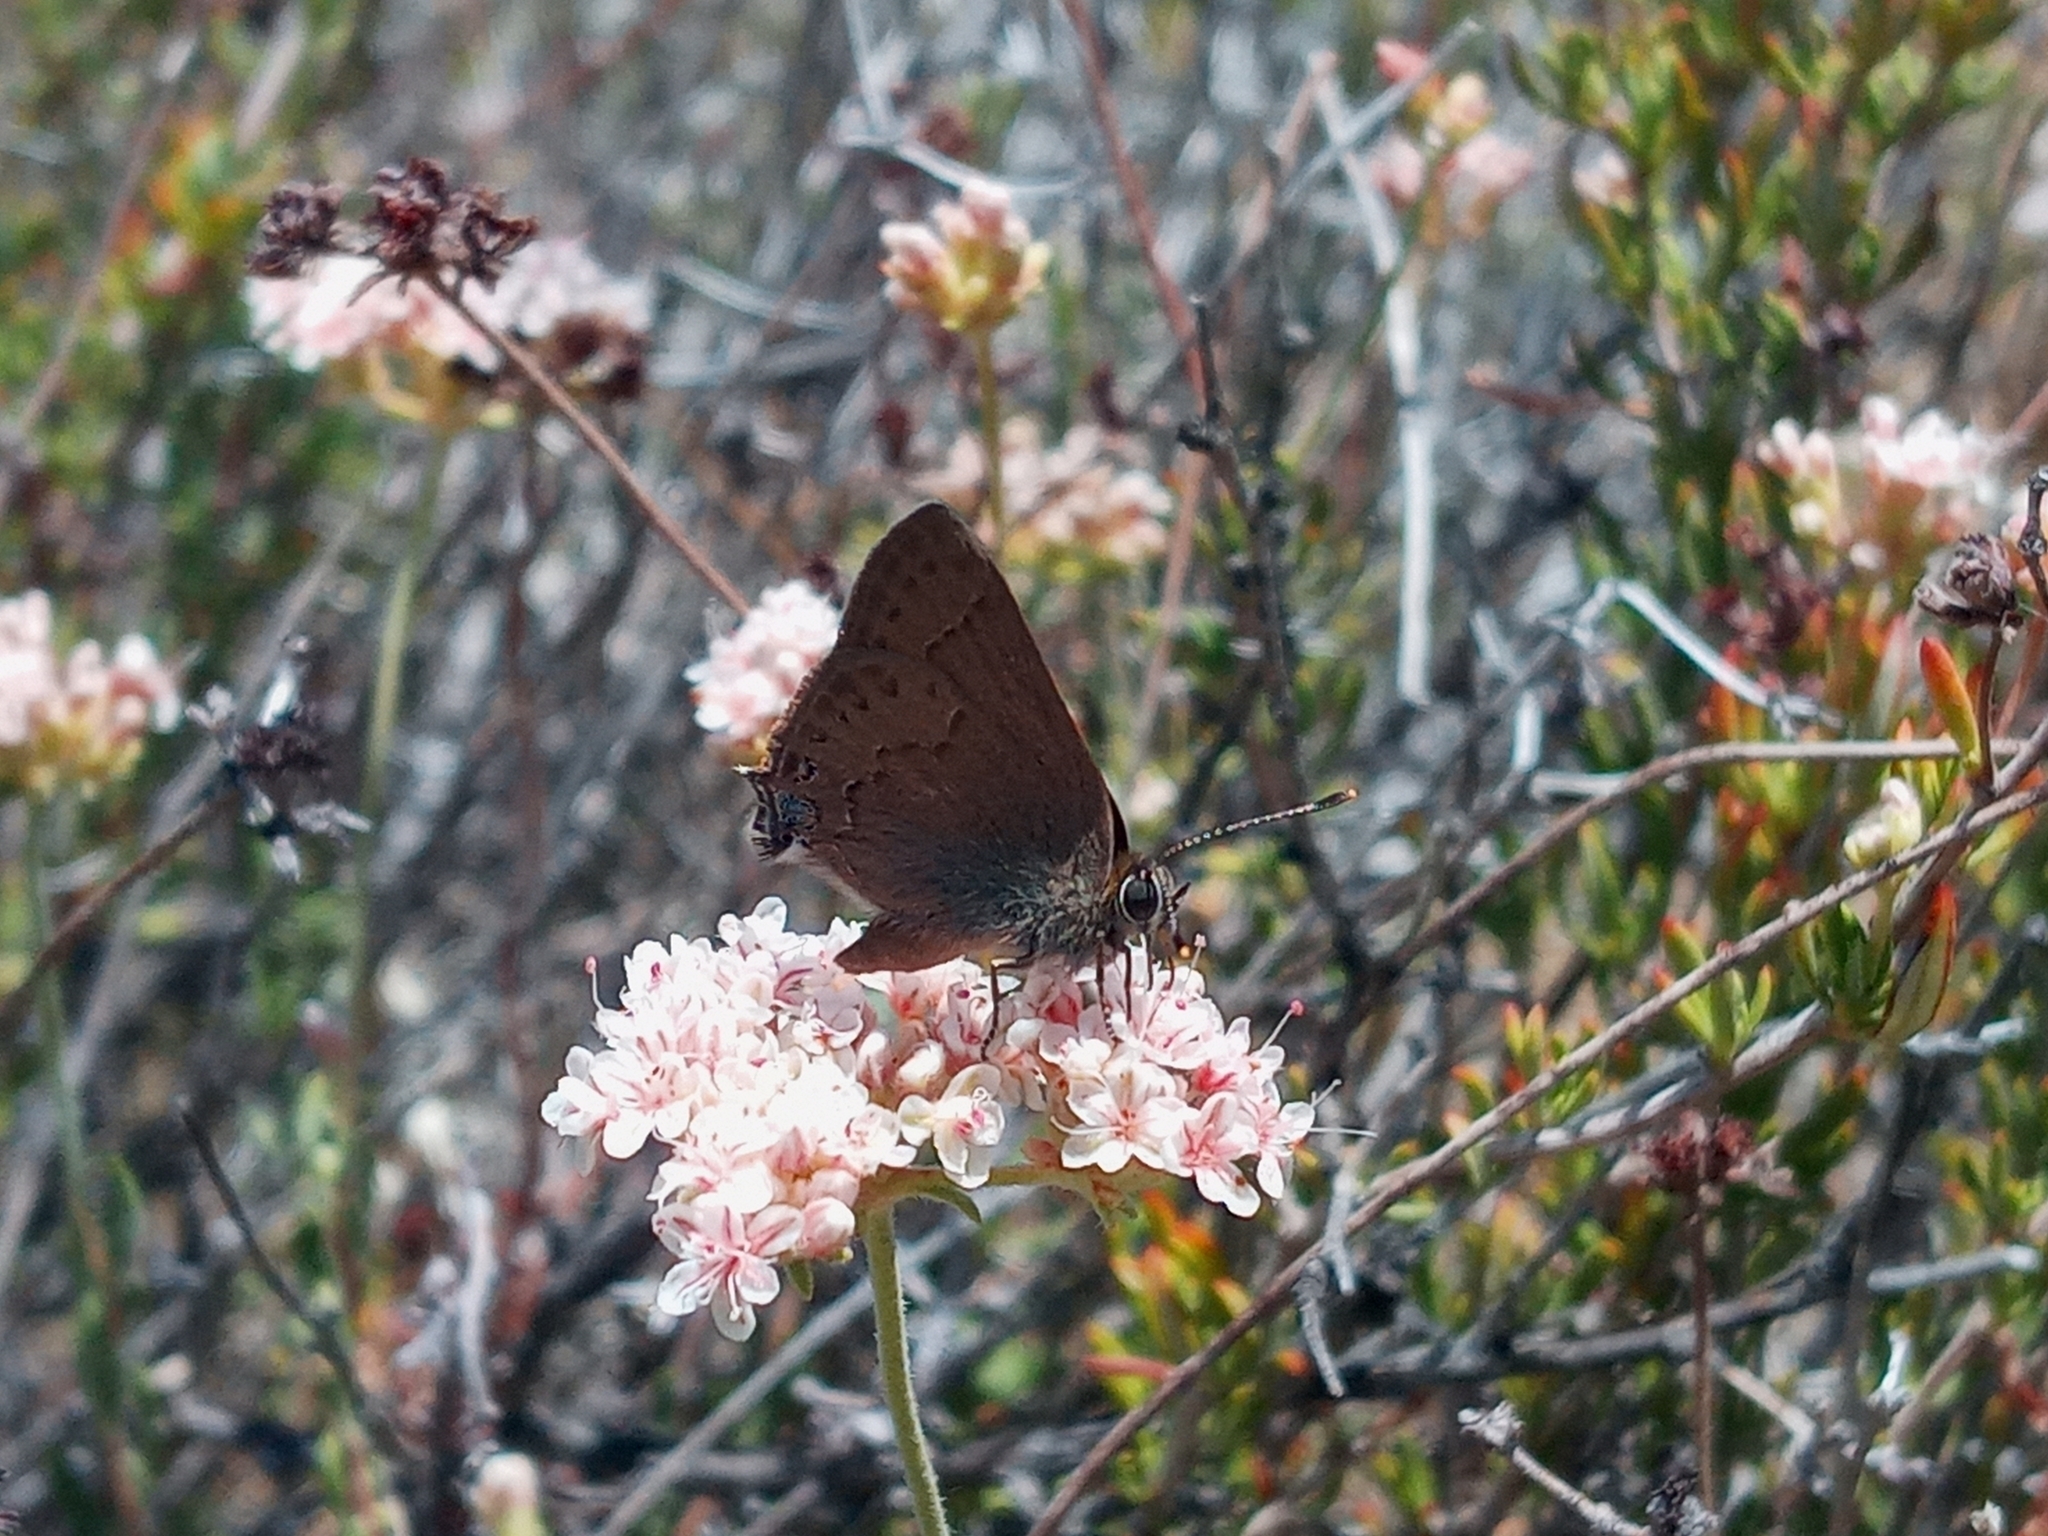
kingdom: Animalia
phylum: Arthropoda
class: Insecta
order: Lepidoptera
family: Lycaenidae
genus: Strymon
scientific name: Strymon saepium
